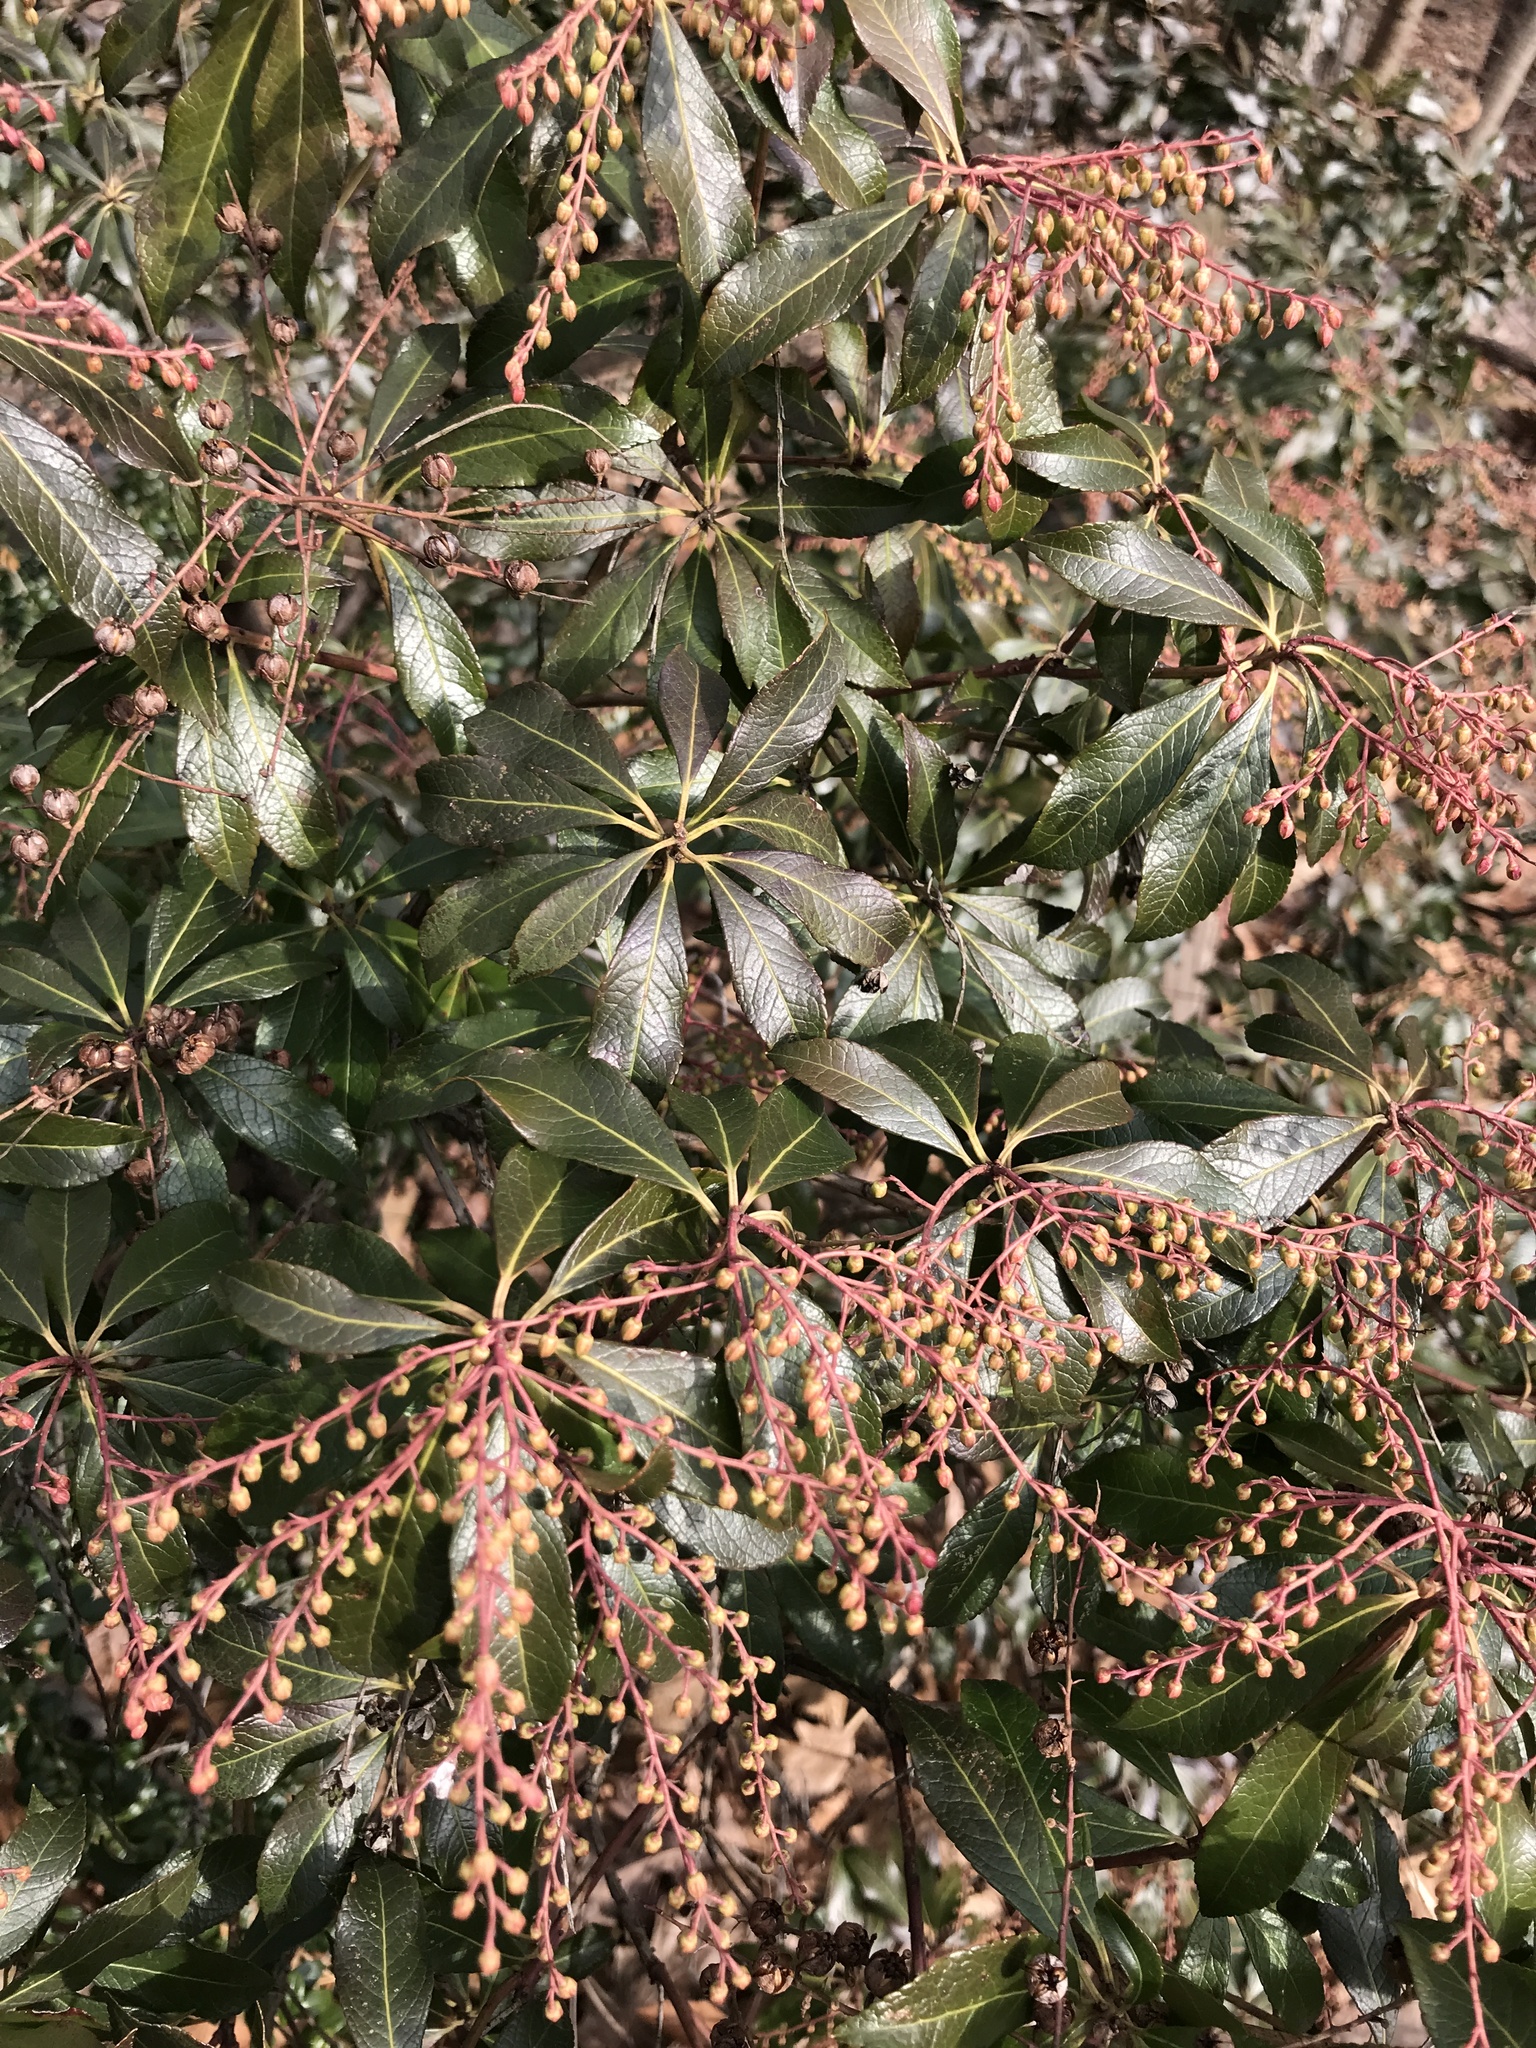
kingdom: Plantae
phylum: Tracheophyta
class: Magnoliopsida
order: Ericales
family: Ericaceae
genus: Pieris
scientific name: Pieris japonica
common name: Japanese pieris
